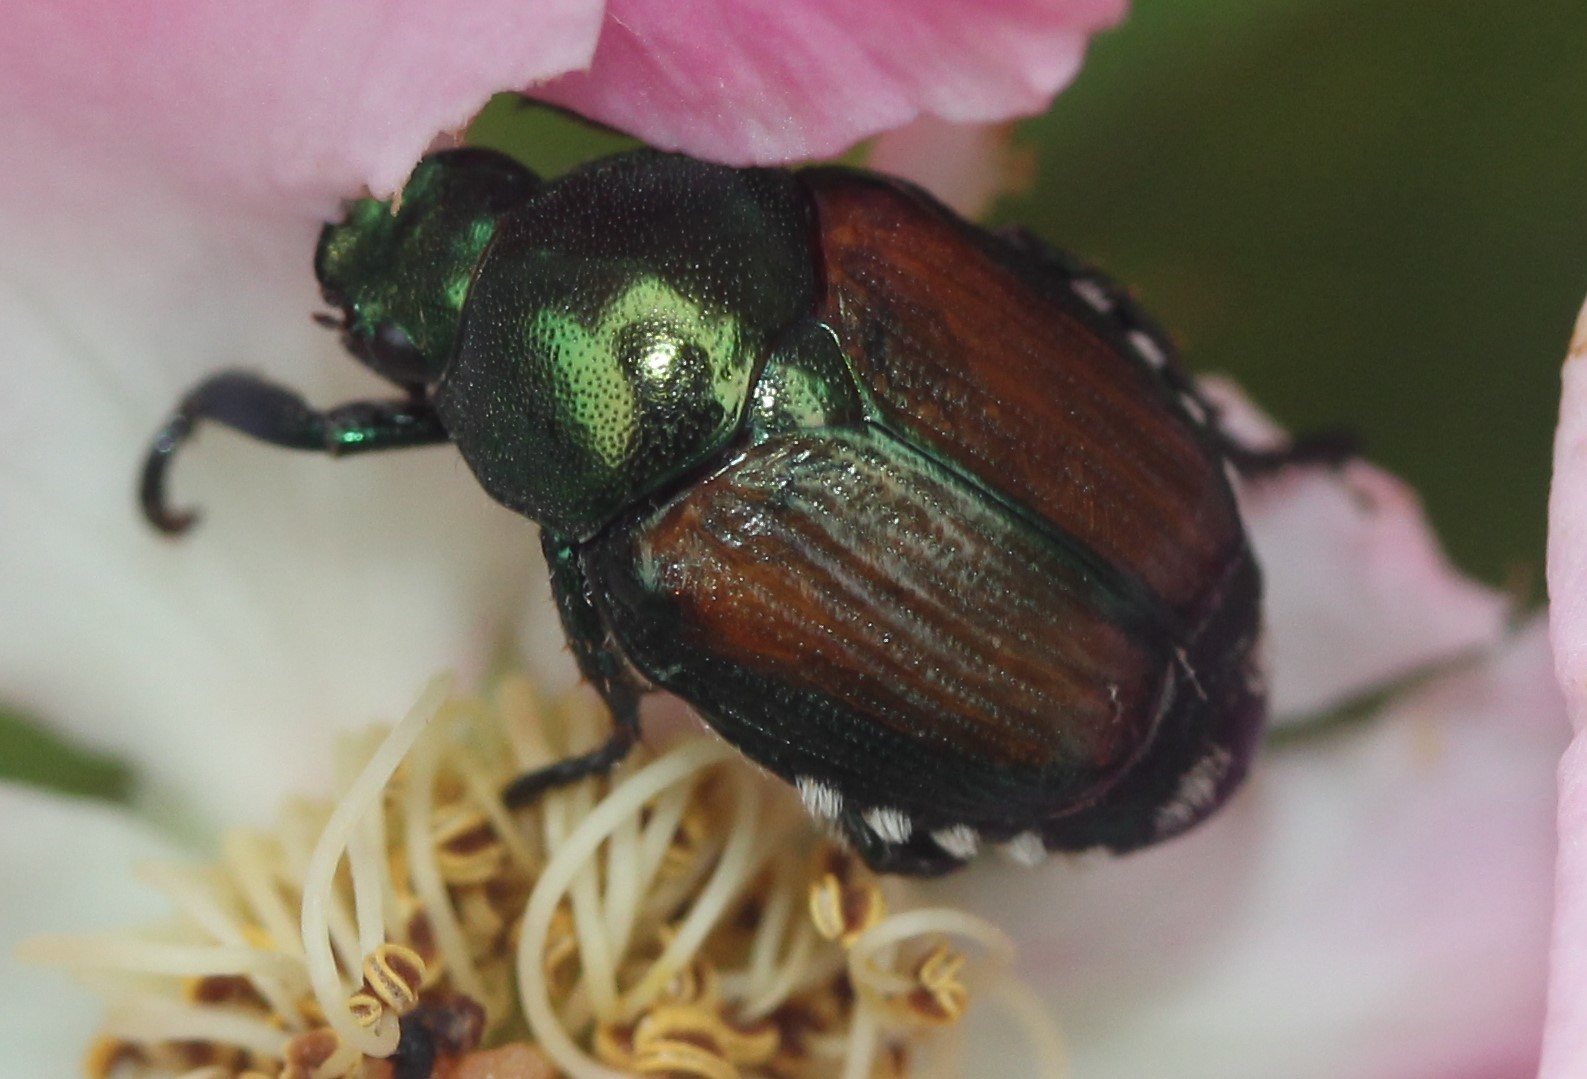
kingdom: Animalia
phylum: Arthropoda
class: Insecta
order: Coleoptera
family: Scarabaeidae
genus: Popillia
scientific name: Popillia japonica
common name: Japanese beetle
